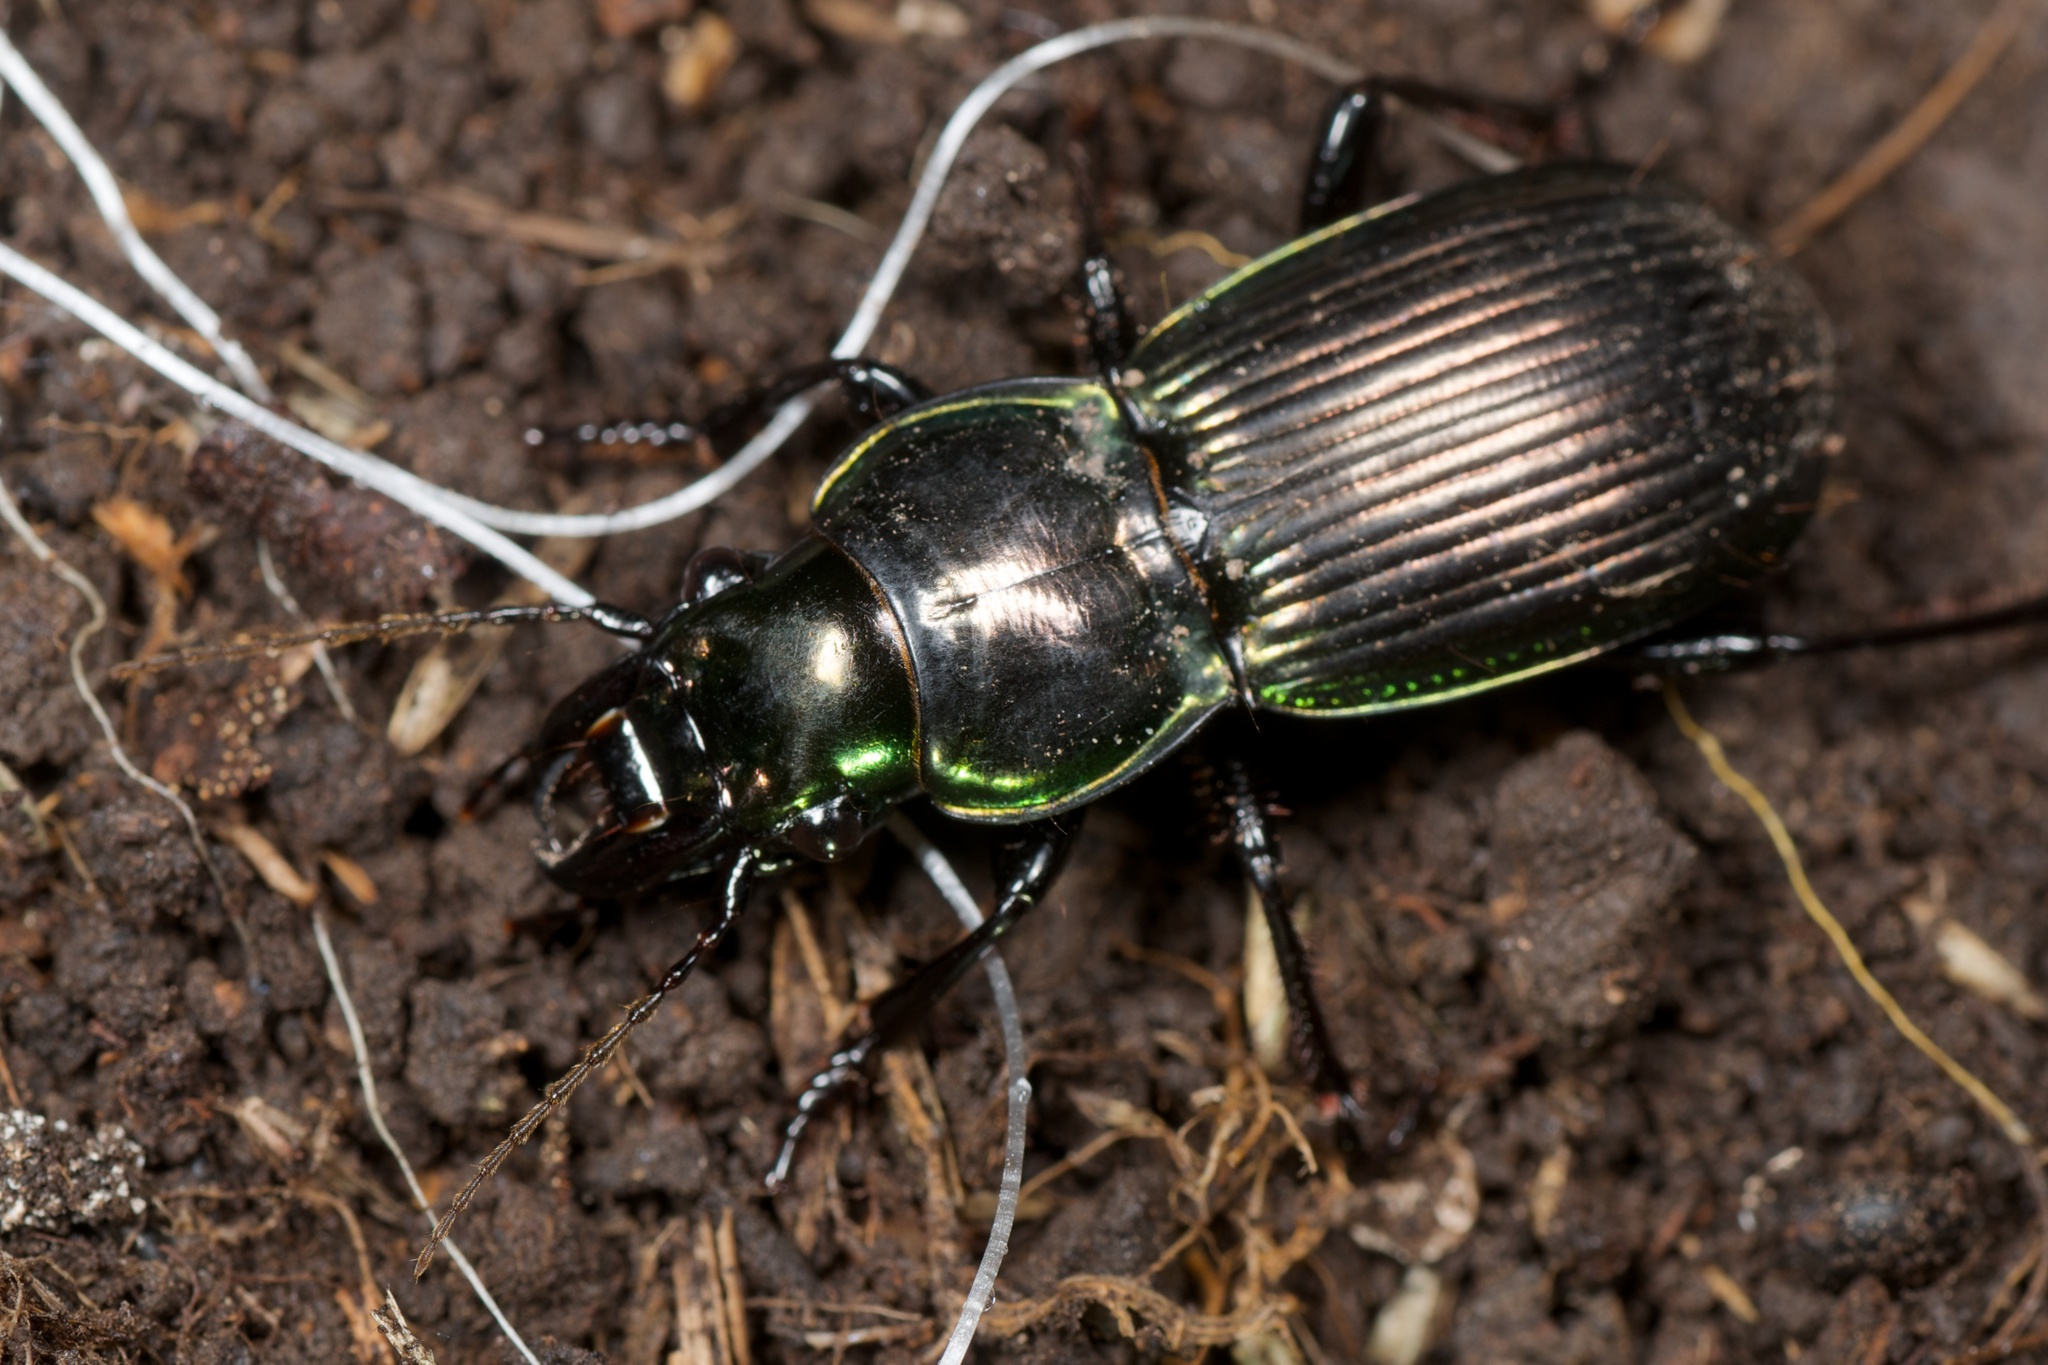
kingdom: Animalia
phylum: Arthropoda
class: Insecta
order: Coleoptera
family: Carabidae
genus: Megadromus
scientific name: Megadromus antarcticus
